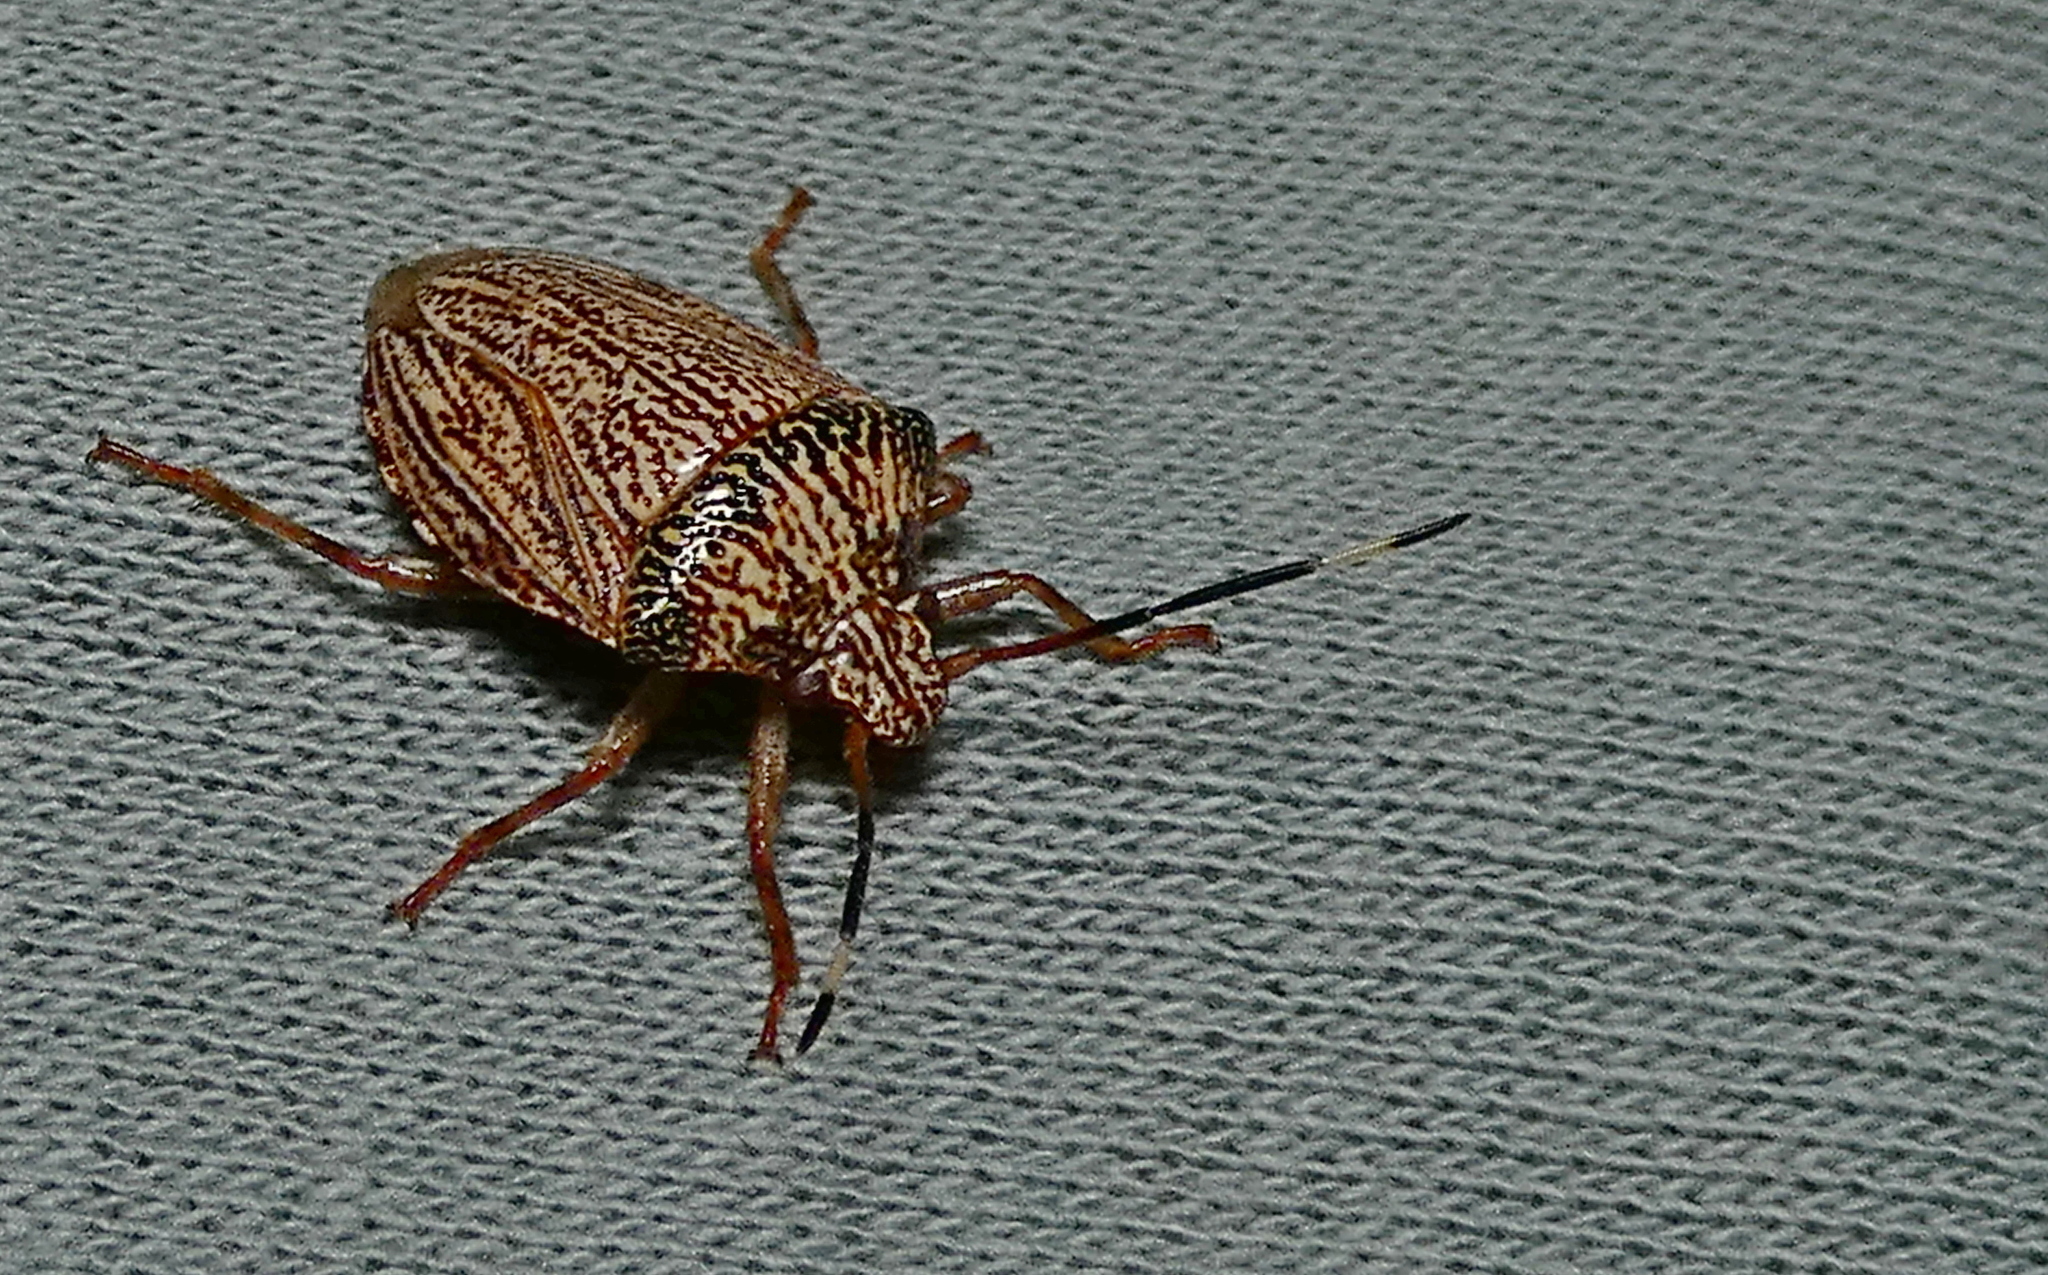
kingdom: Animalia
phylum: Arthropoda
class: Insecta
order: Hemiptera
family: Pentatomidae
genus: Antiteuchus
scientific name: Antiteuchus macraspis
